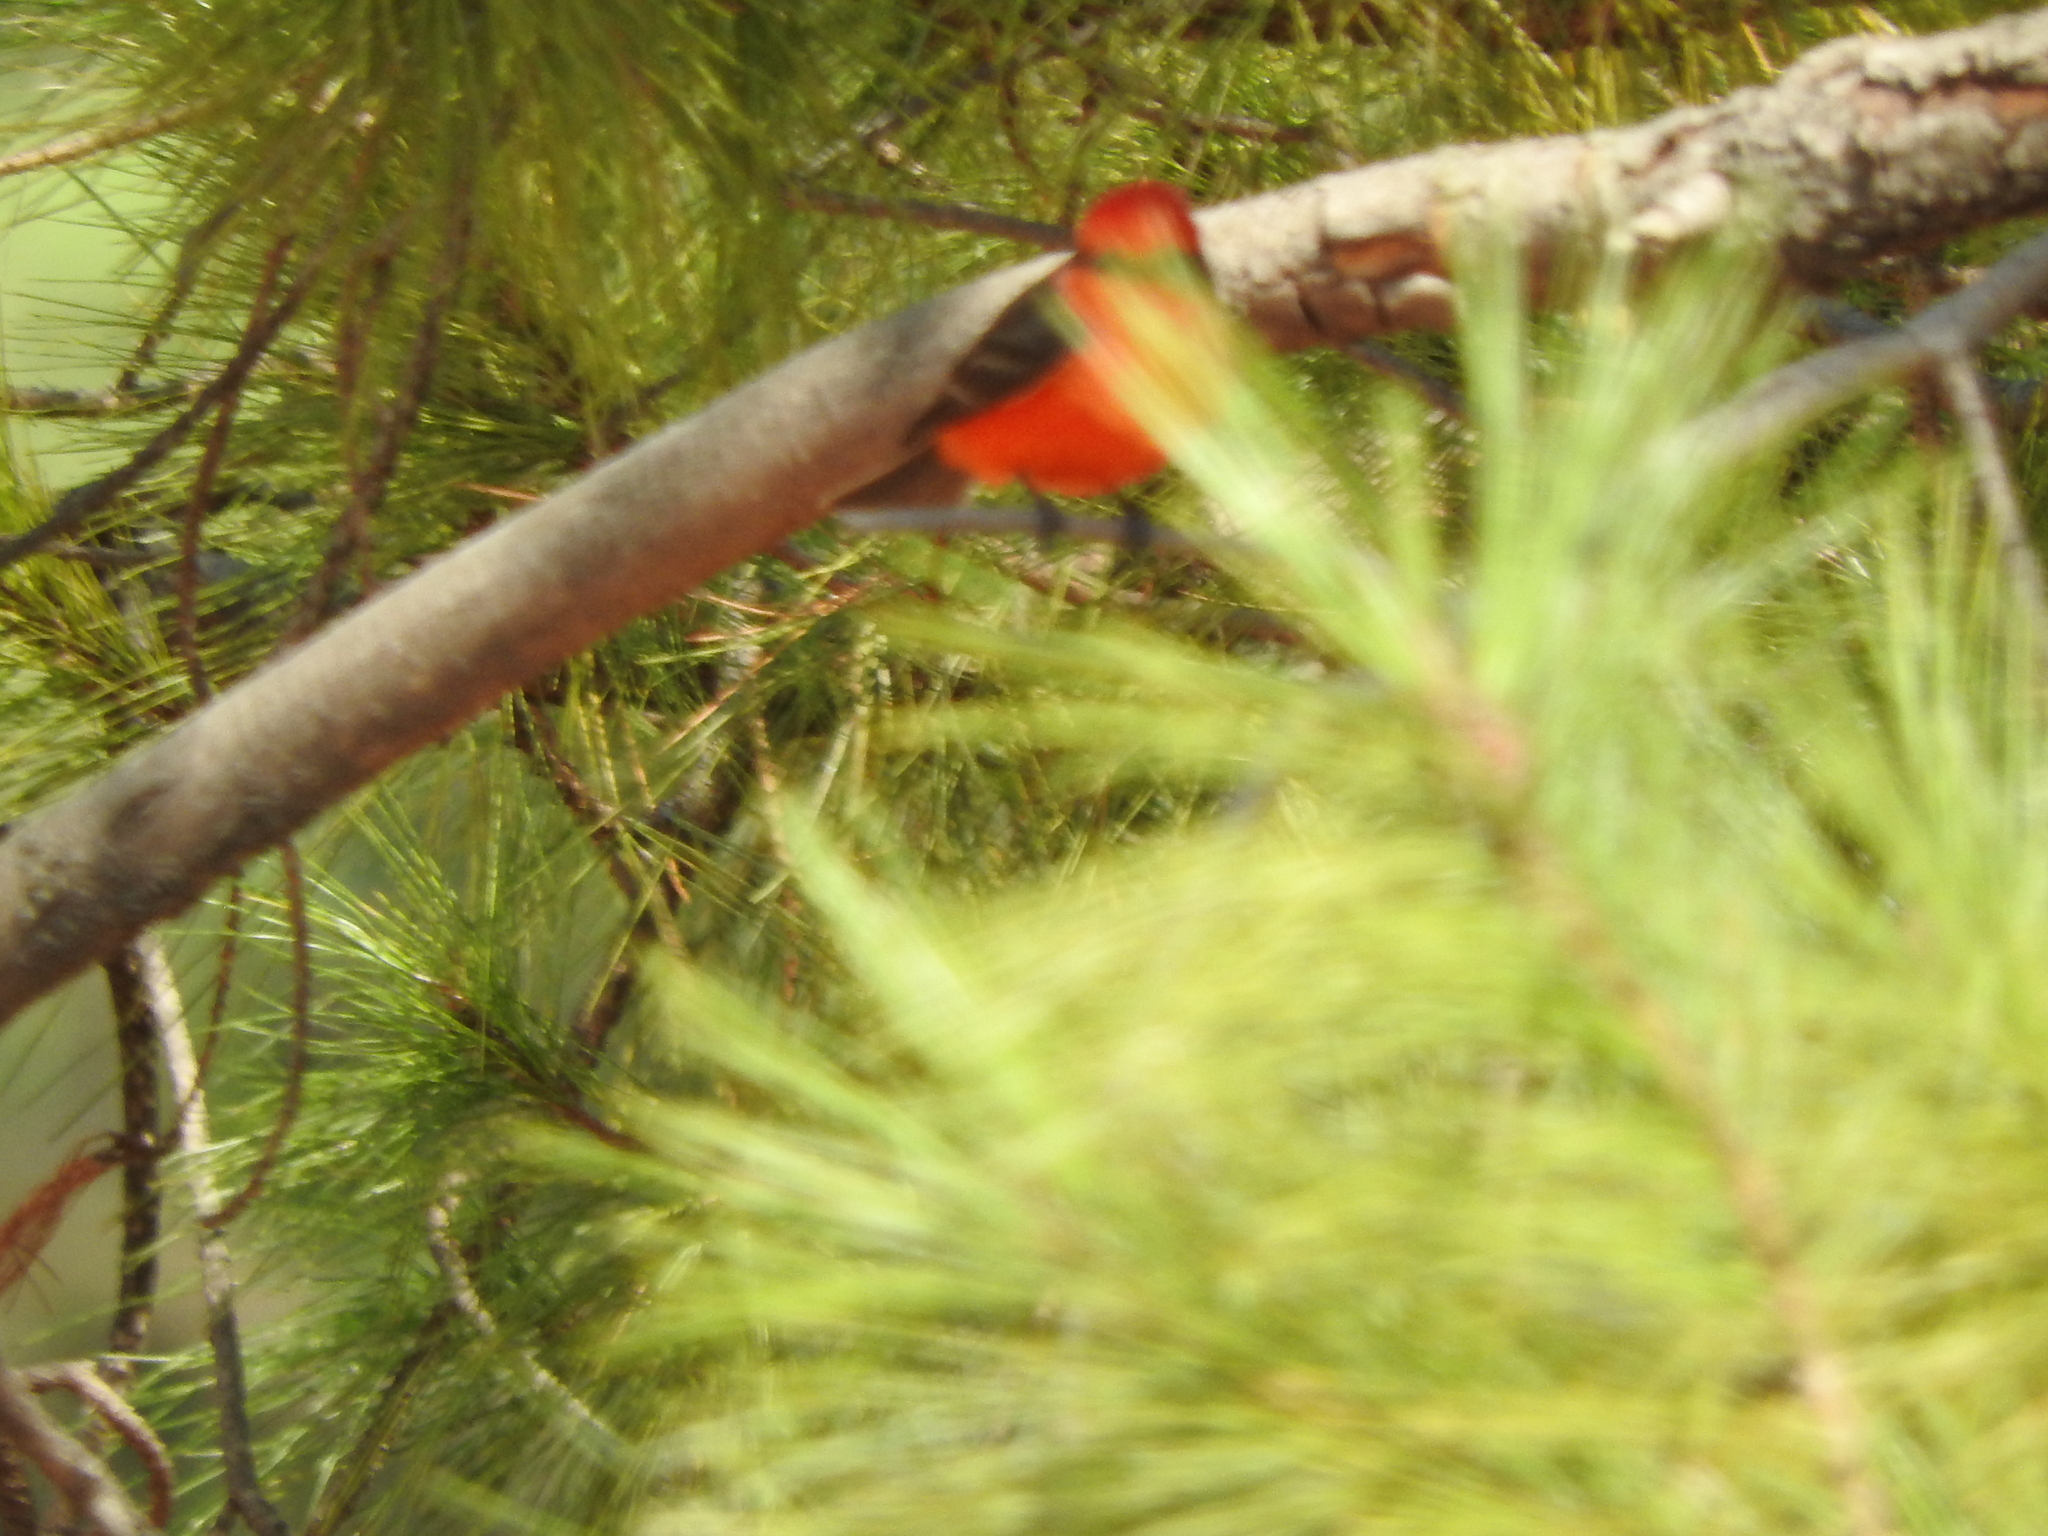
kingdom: Animalia
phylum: Chordata
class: Aves
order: Passeriformes
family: Tyrannidae
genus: Pyrocephalus
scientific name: Pyrocephalus rubinus
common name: Vermilion flycatcher
